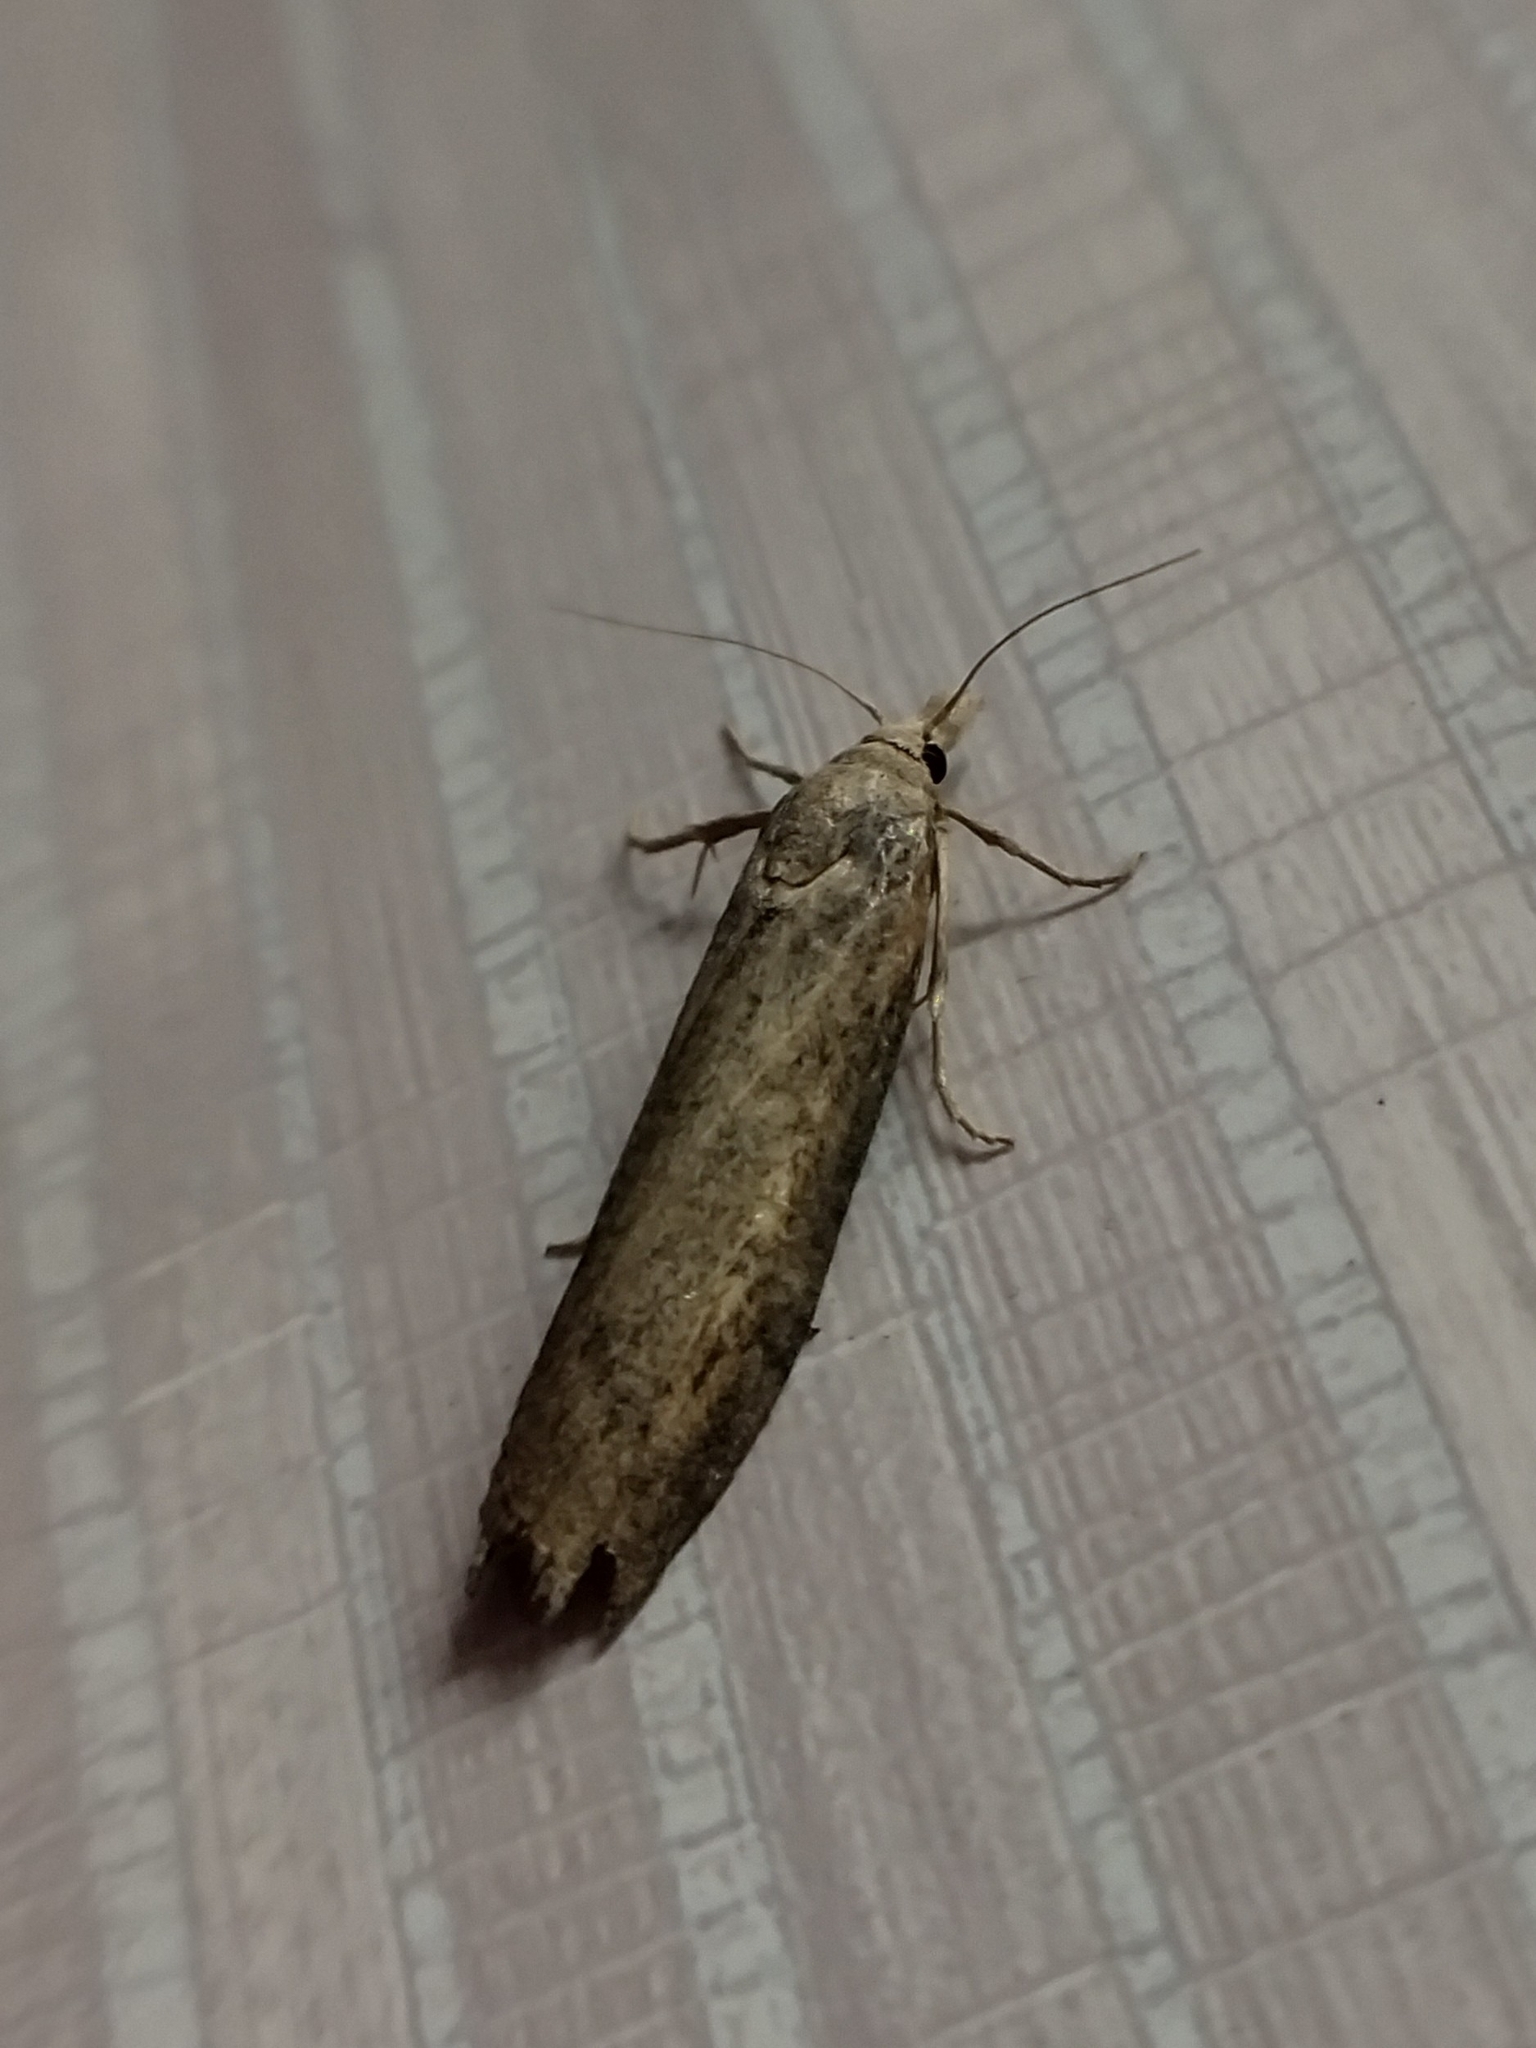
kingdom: Animalia
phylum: Arthropoda
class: Insecta
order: Lepidoptera
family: Pyralidae
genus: Aphomia
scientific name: Aphomia zelleri
